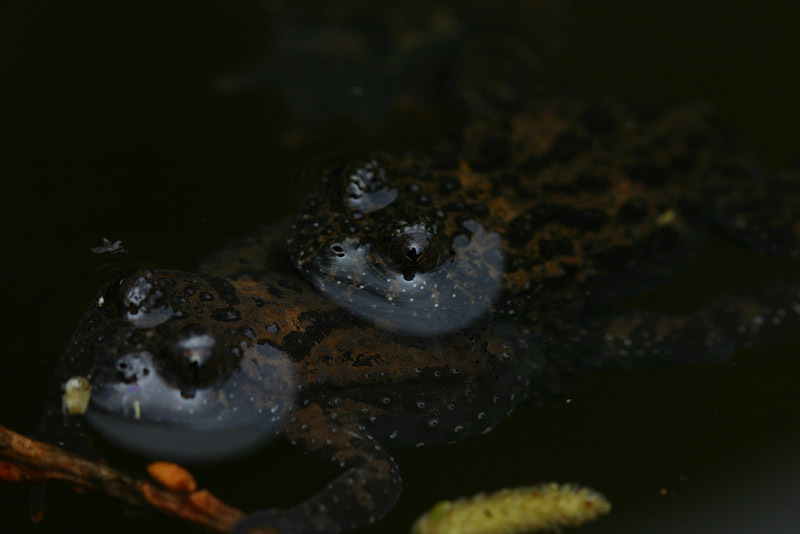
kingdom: Animalia
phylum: Chordata
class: Amphibia
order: Anura
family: Bombinatoridae
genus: Bombina
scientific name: Bombina orientalis
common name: Oriental firebelly toad
